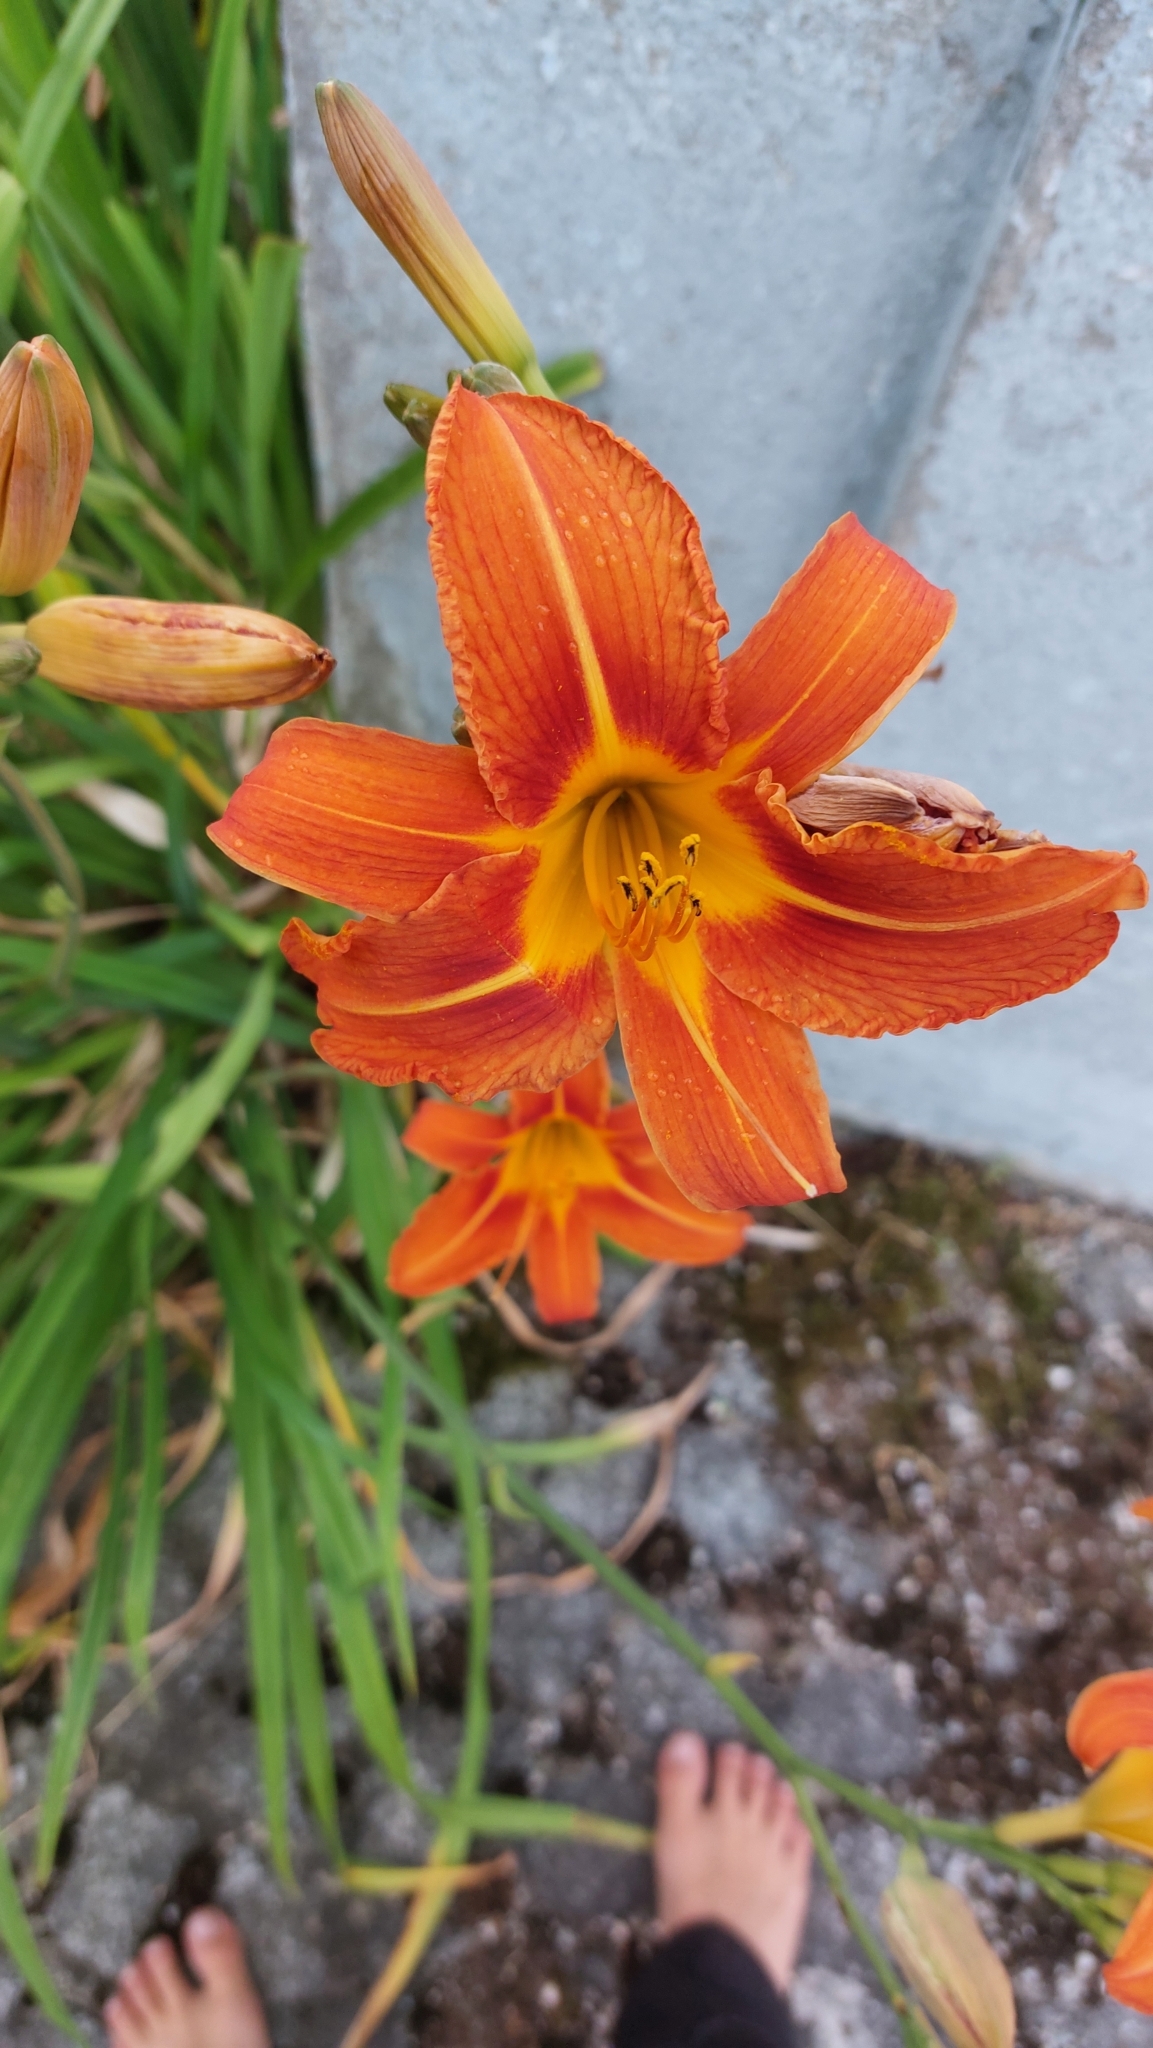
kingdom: Plantae
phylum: Tracheophyta
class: Liliopsida
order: Asparagales
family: Asphodelaceae
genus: Hemerocallis
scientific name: Hemerocallis fulva
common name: Orange day-lily
